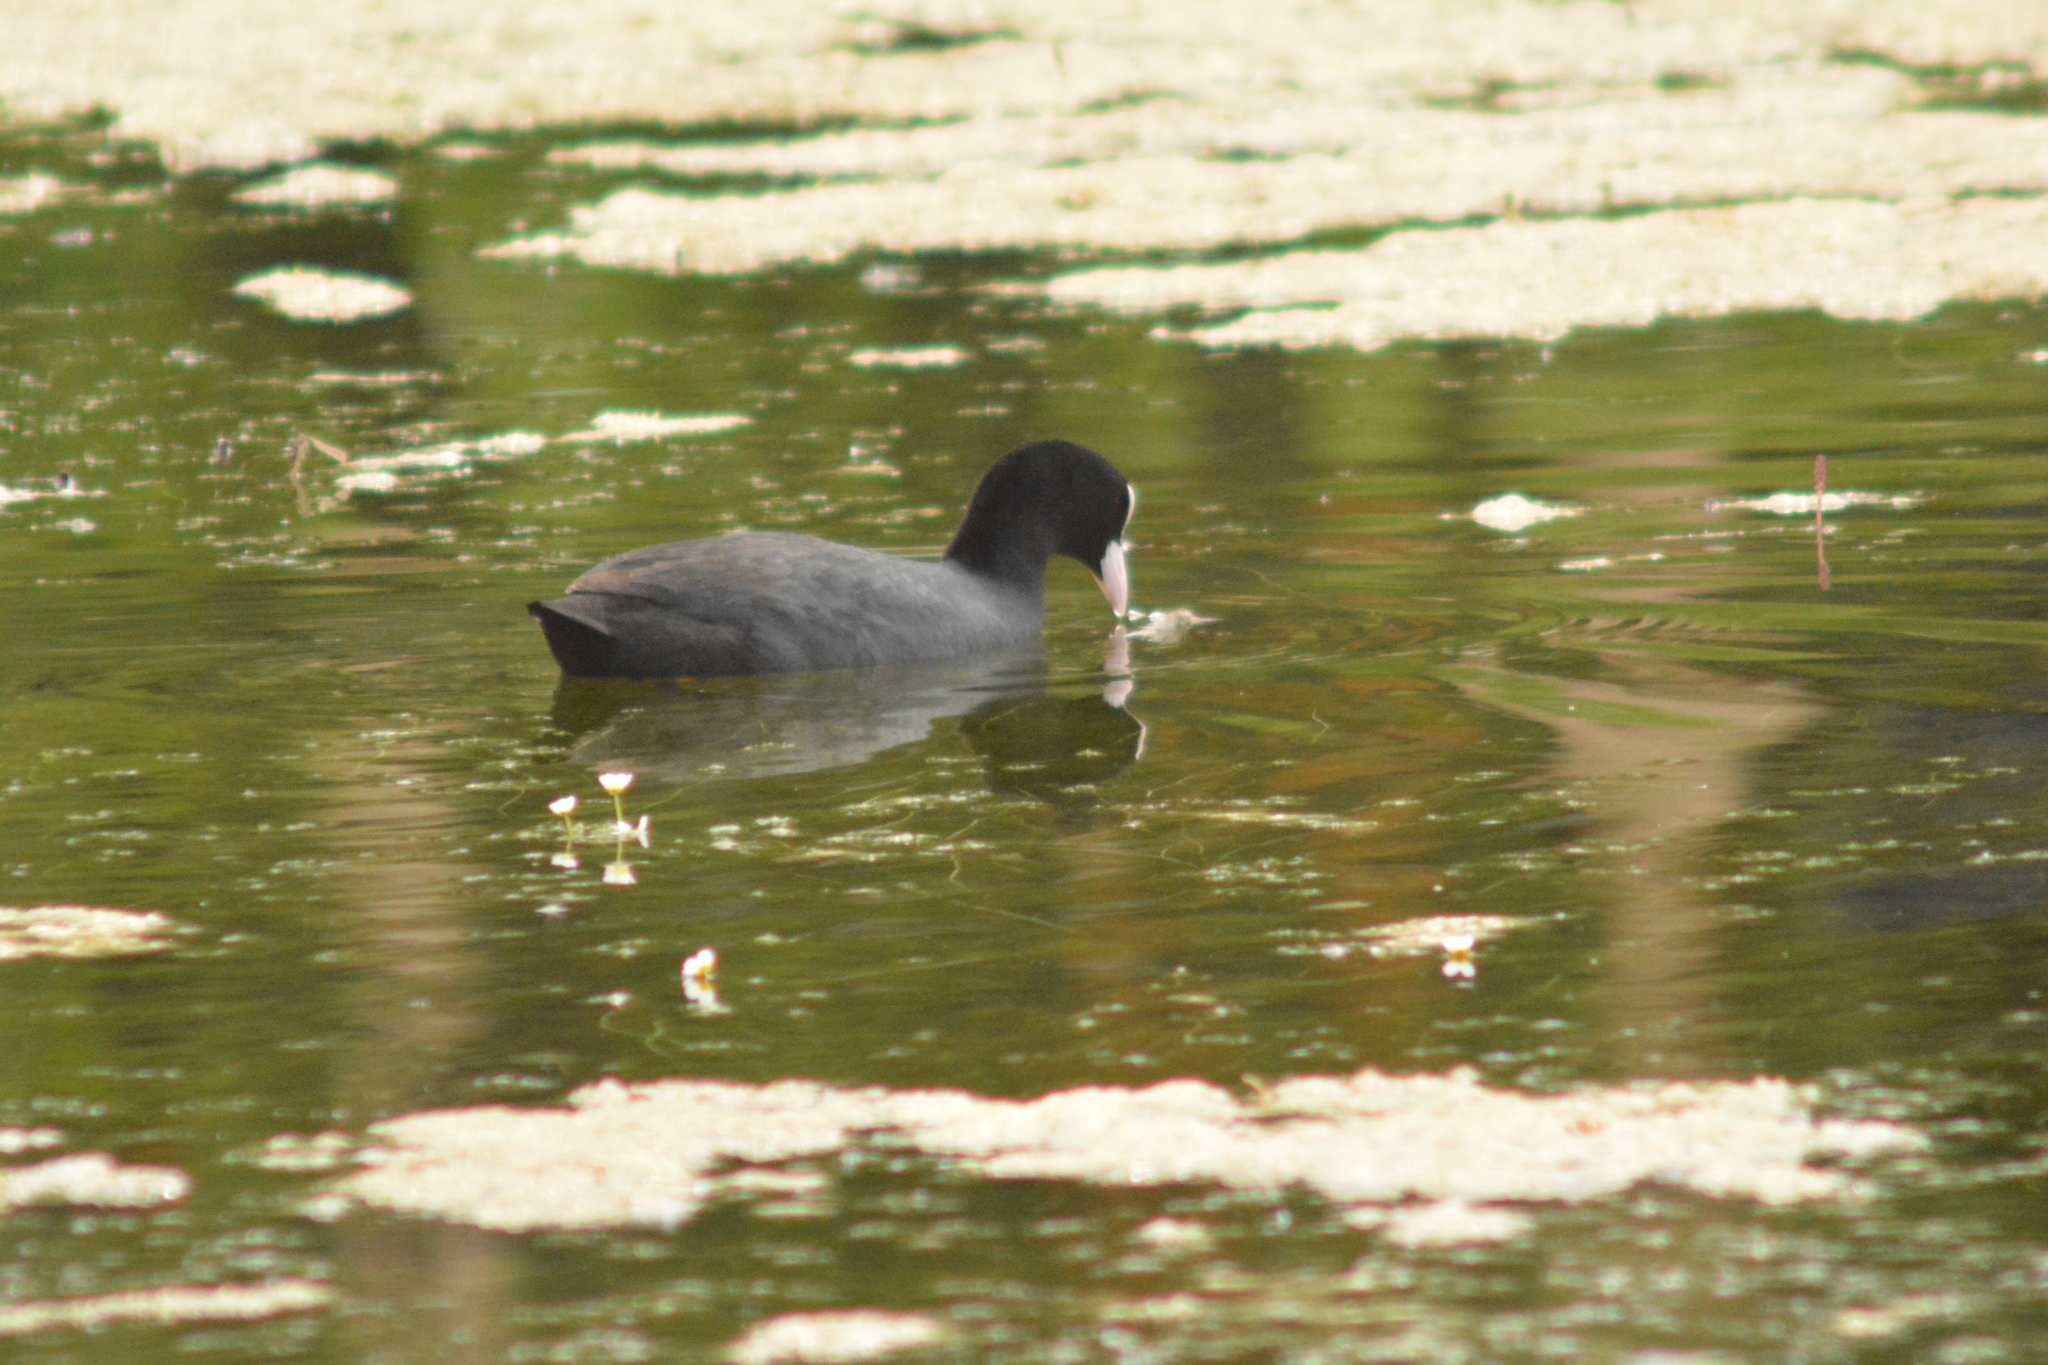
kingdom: Animalia
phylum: Chordata
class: Aves
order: Gruiformes
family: Rallidae
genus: Fulica
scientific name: Fulica atra
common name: Eurasian coot
